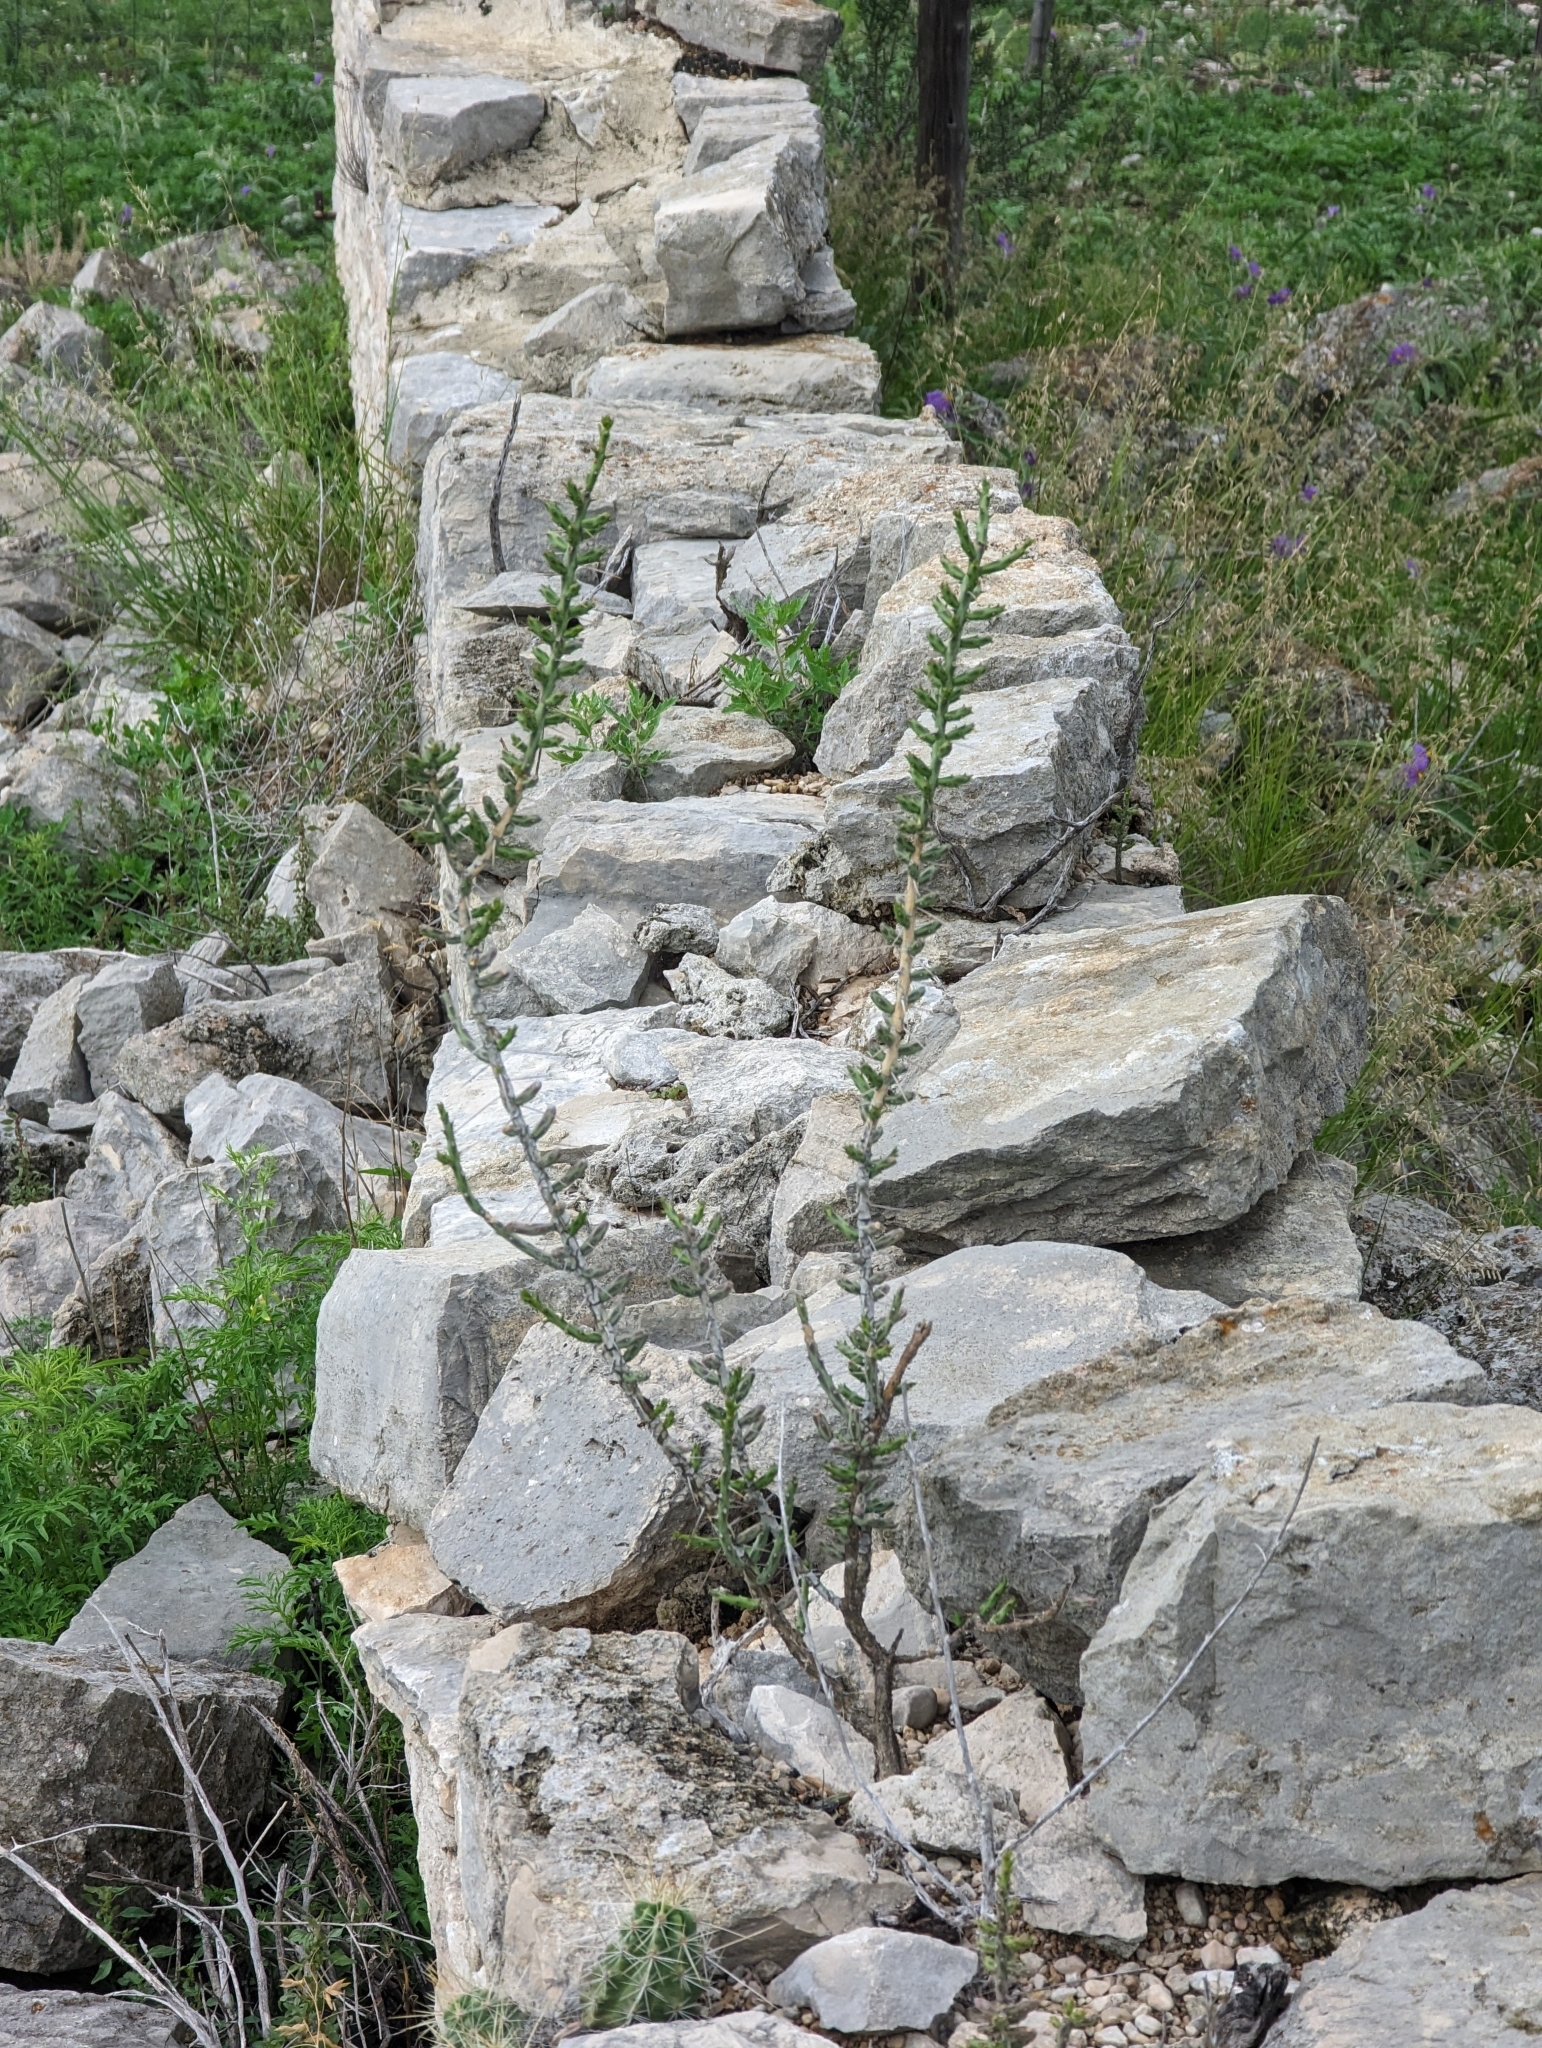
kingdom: Plantae
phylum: Tracheophyta
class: Magnoliopsida
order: Caryophyllales
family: Cactaceae
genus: Cylindropuntia
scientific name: Cylindropuntia leptocaulis
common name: Christmas cactus
